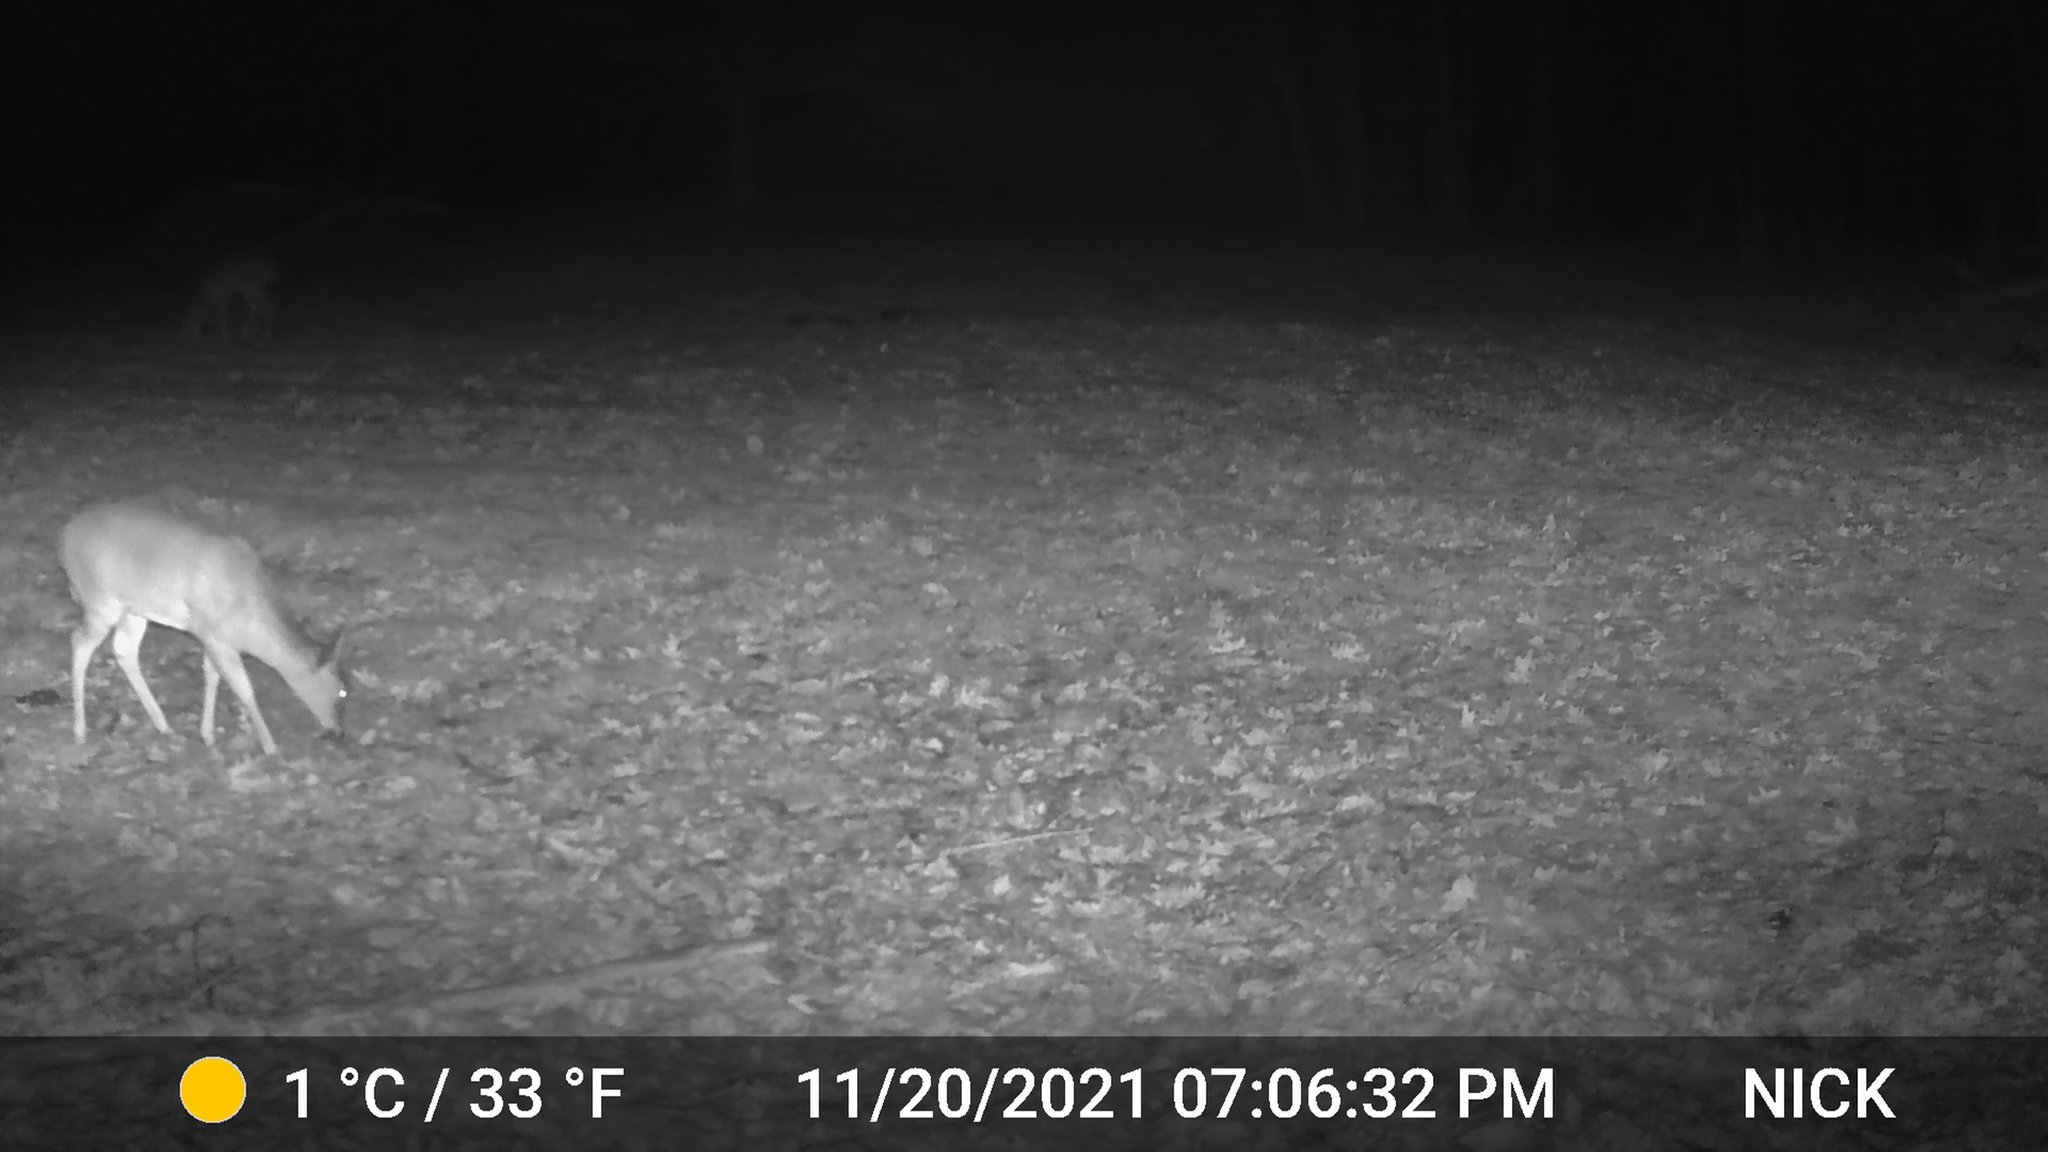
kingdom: Animalia
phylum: Chordata
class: Mammalia
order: Artiodactyla
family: Cervidae
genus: Odocoileus
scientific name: Odocoileus virginianus
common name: White-tailed deer
